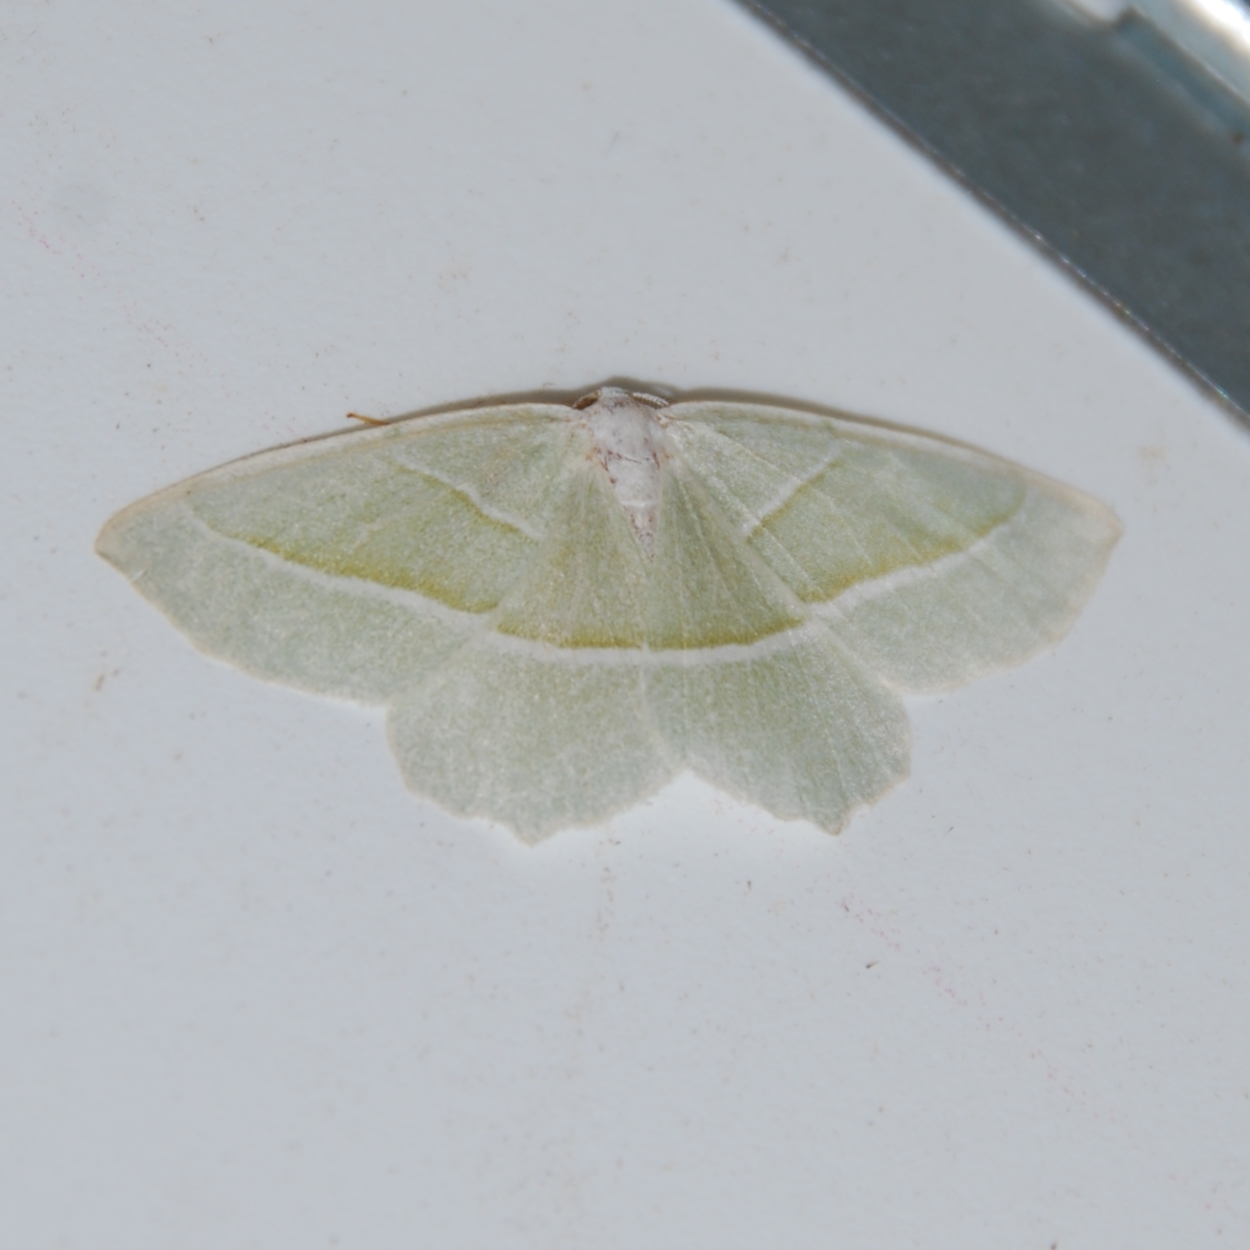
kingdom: Animalia
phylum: Arthropoda
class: Insecta
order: Lepidoptera
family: Geometridae
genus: Campaea
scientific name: Campaea margaritaria
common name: Light emerald
